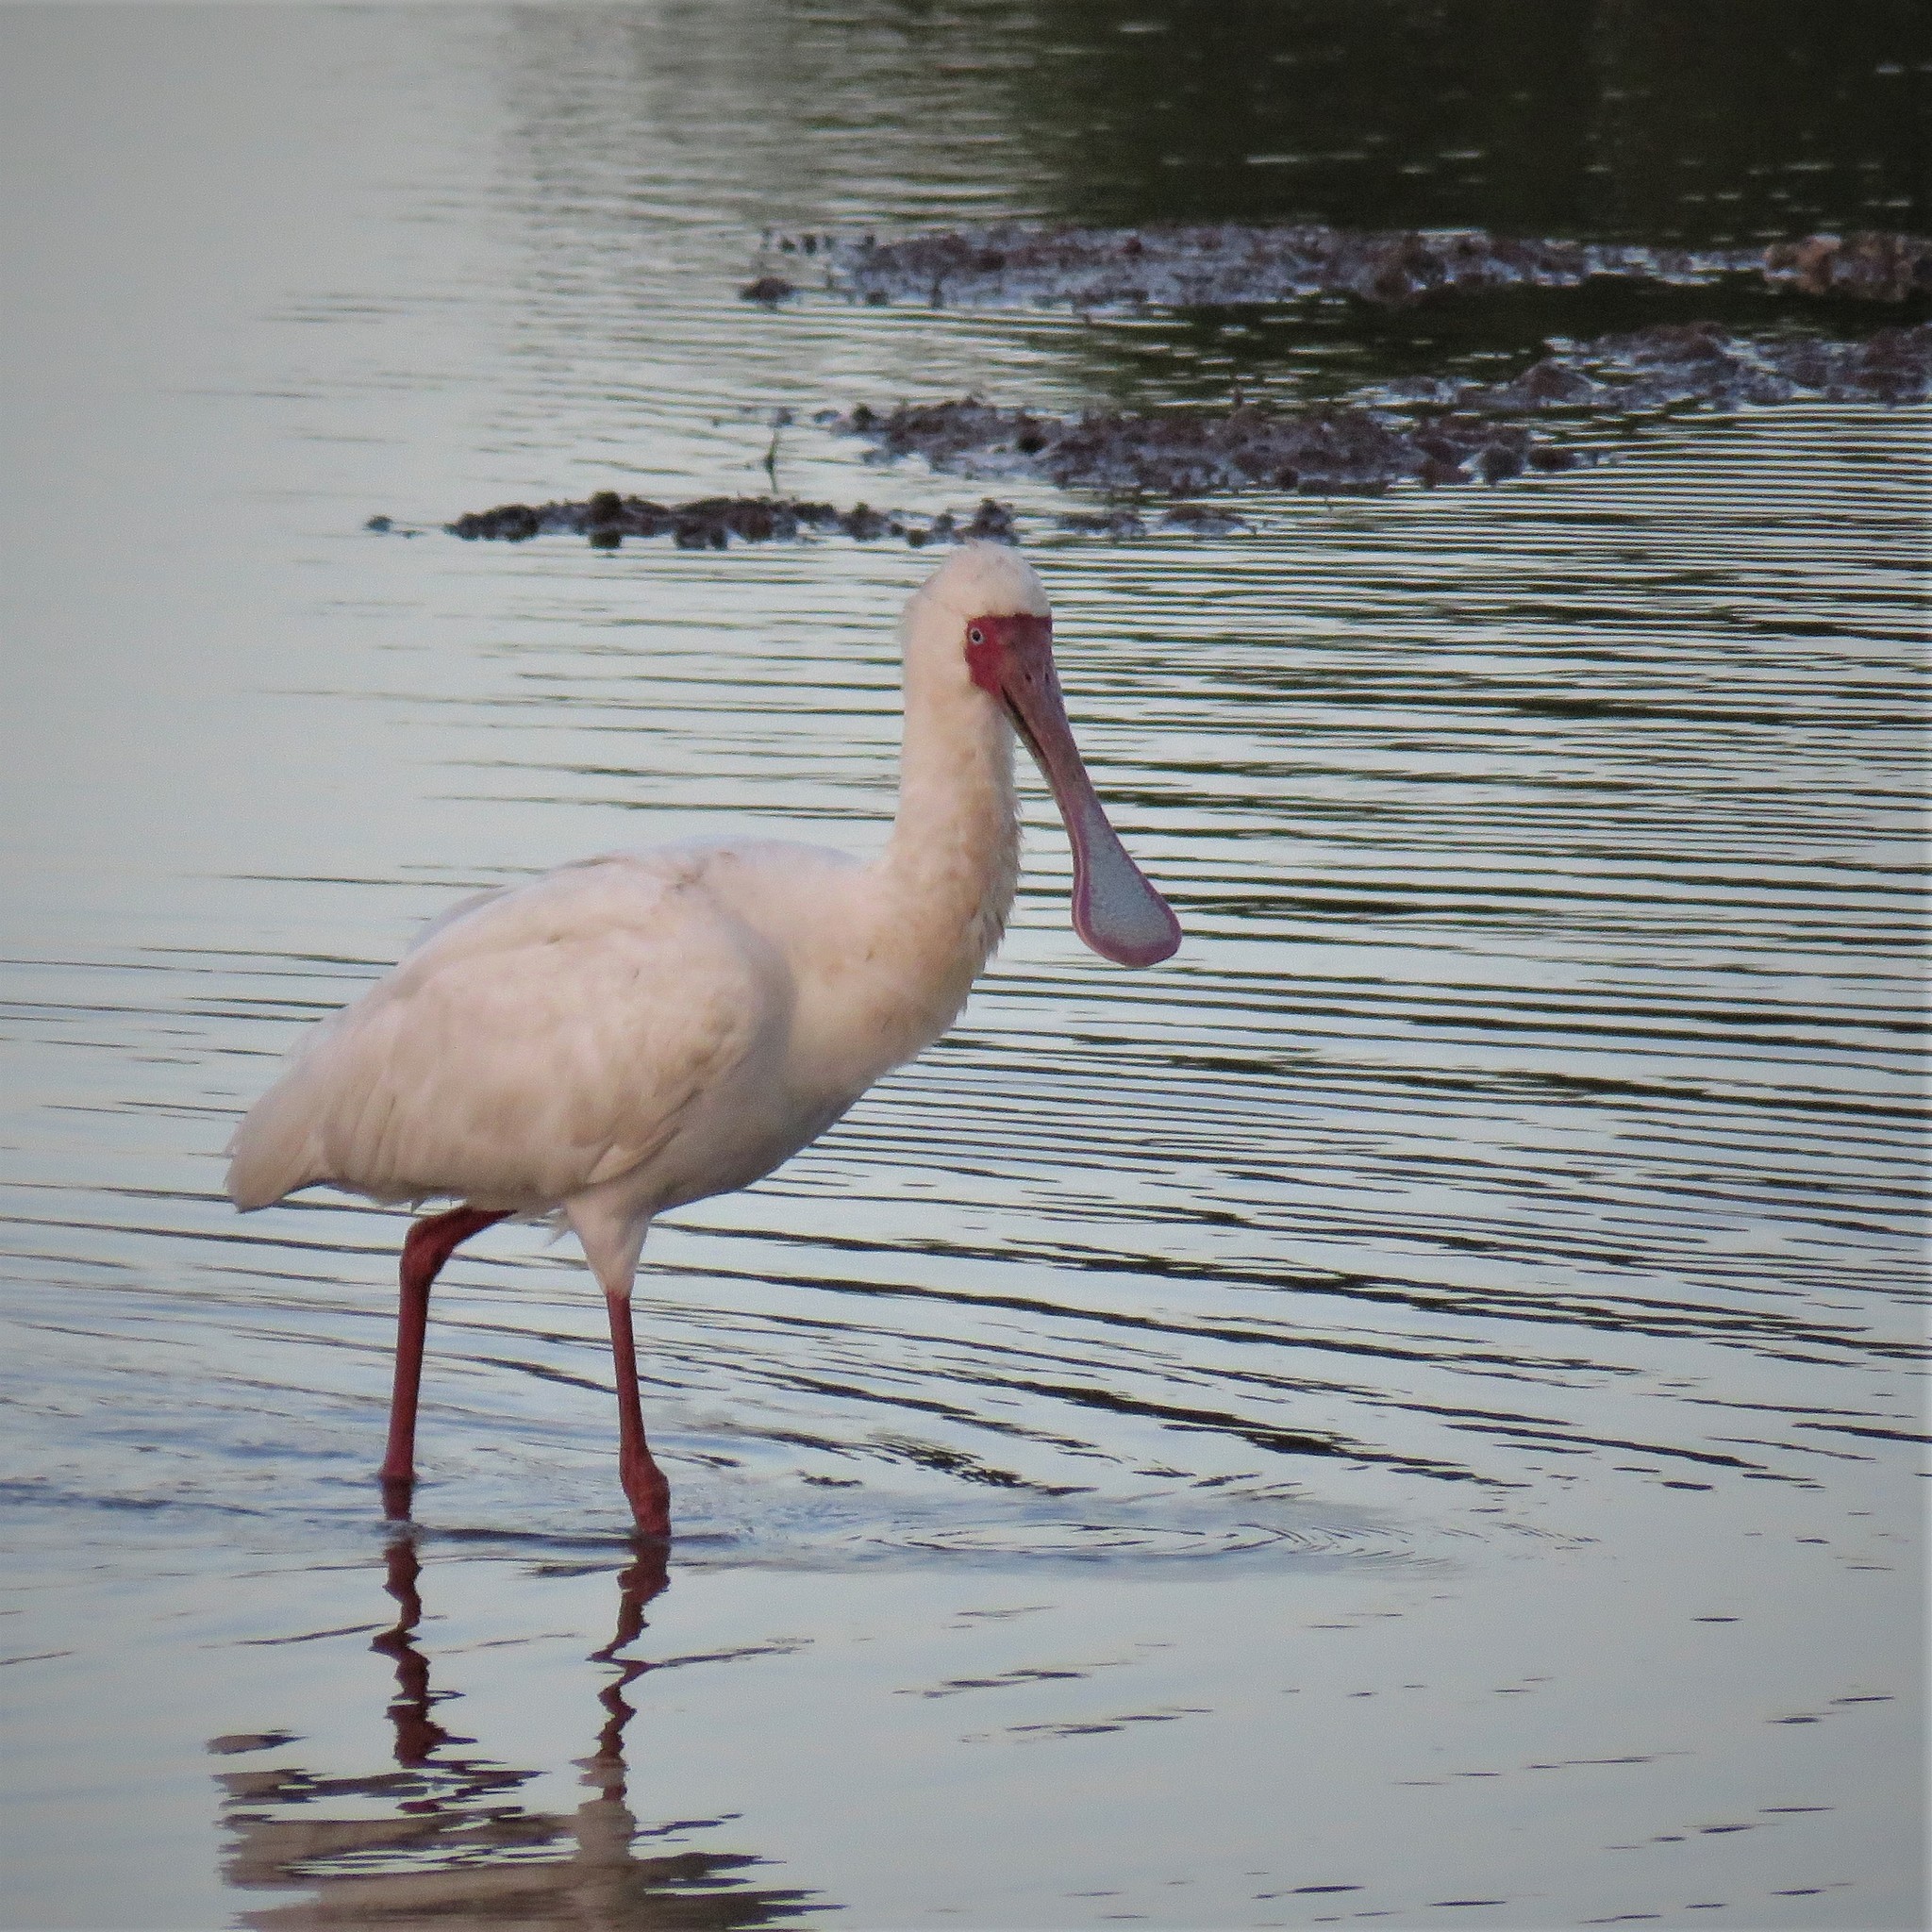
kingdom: Animalia
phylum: Chordata
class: Aves
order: Pelecaniformes
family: Threskiornithidae
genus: Platalea
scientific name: Platalea alba
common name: African spoonbill
